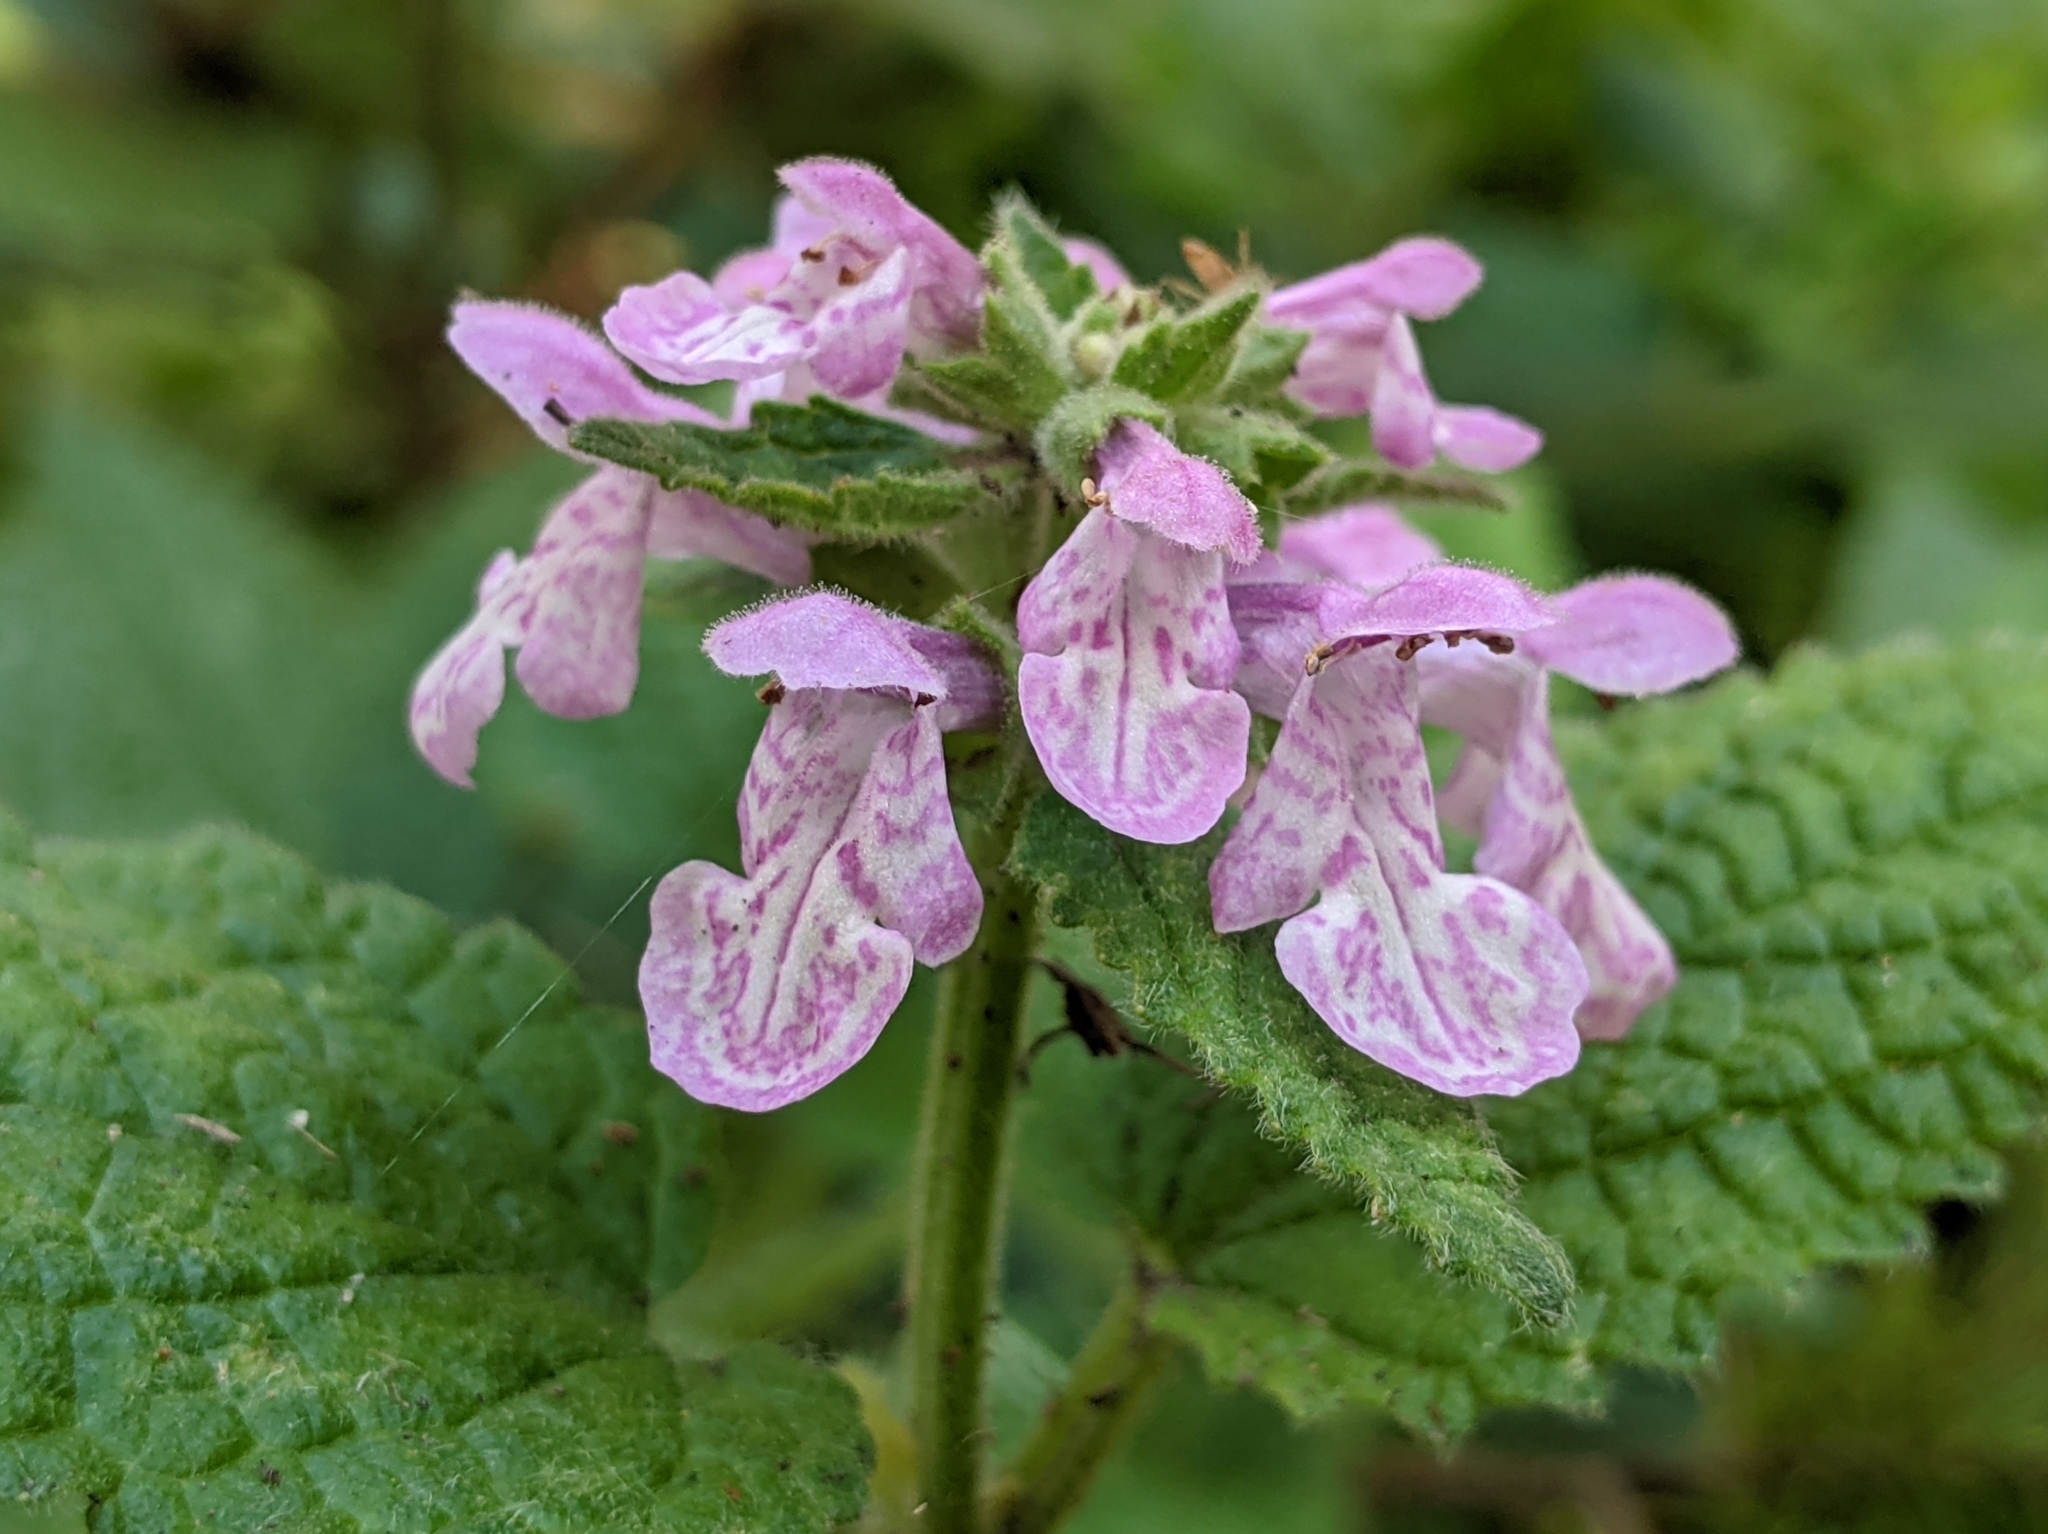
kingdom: Plantae
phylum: Tracheophyta
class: Magnoliopsida
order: Lamiales
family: Lamiaceae
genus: Stachys
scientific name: Stachys bullata
